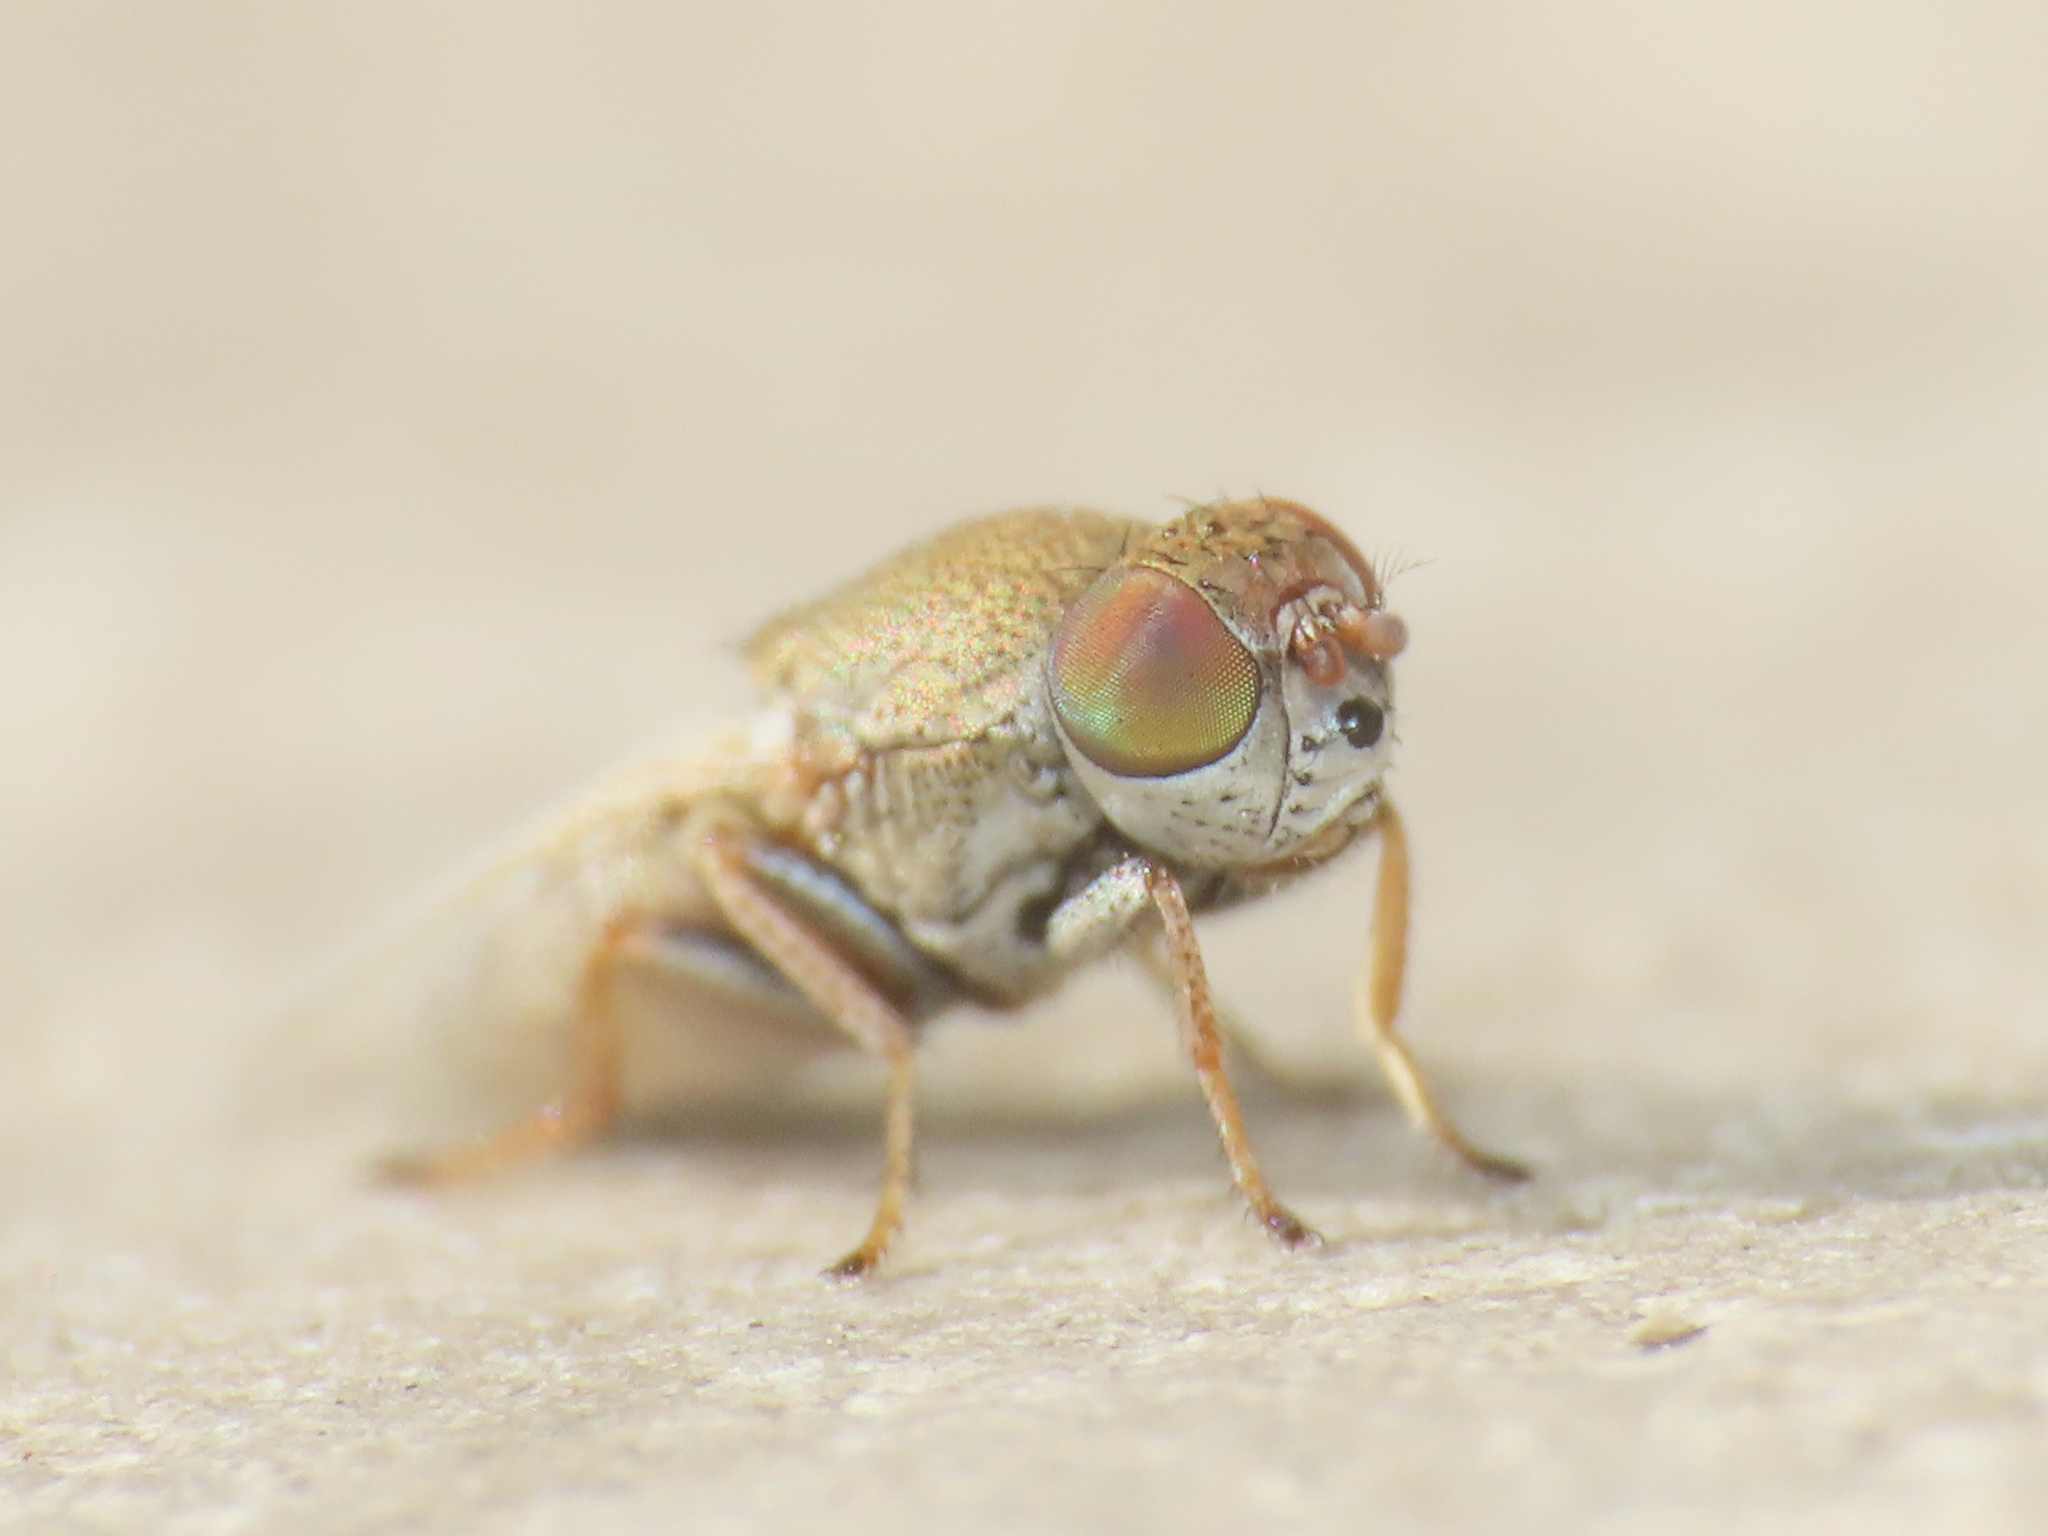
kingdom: Animalia
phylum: Arthropoda
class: Insecta
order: Diptera
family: Ephydridae
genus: Hecamede
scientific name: Hecamede albicans
